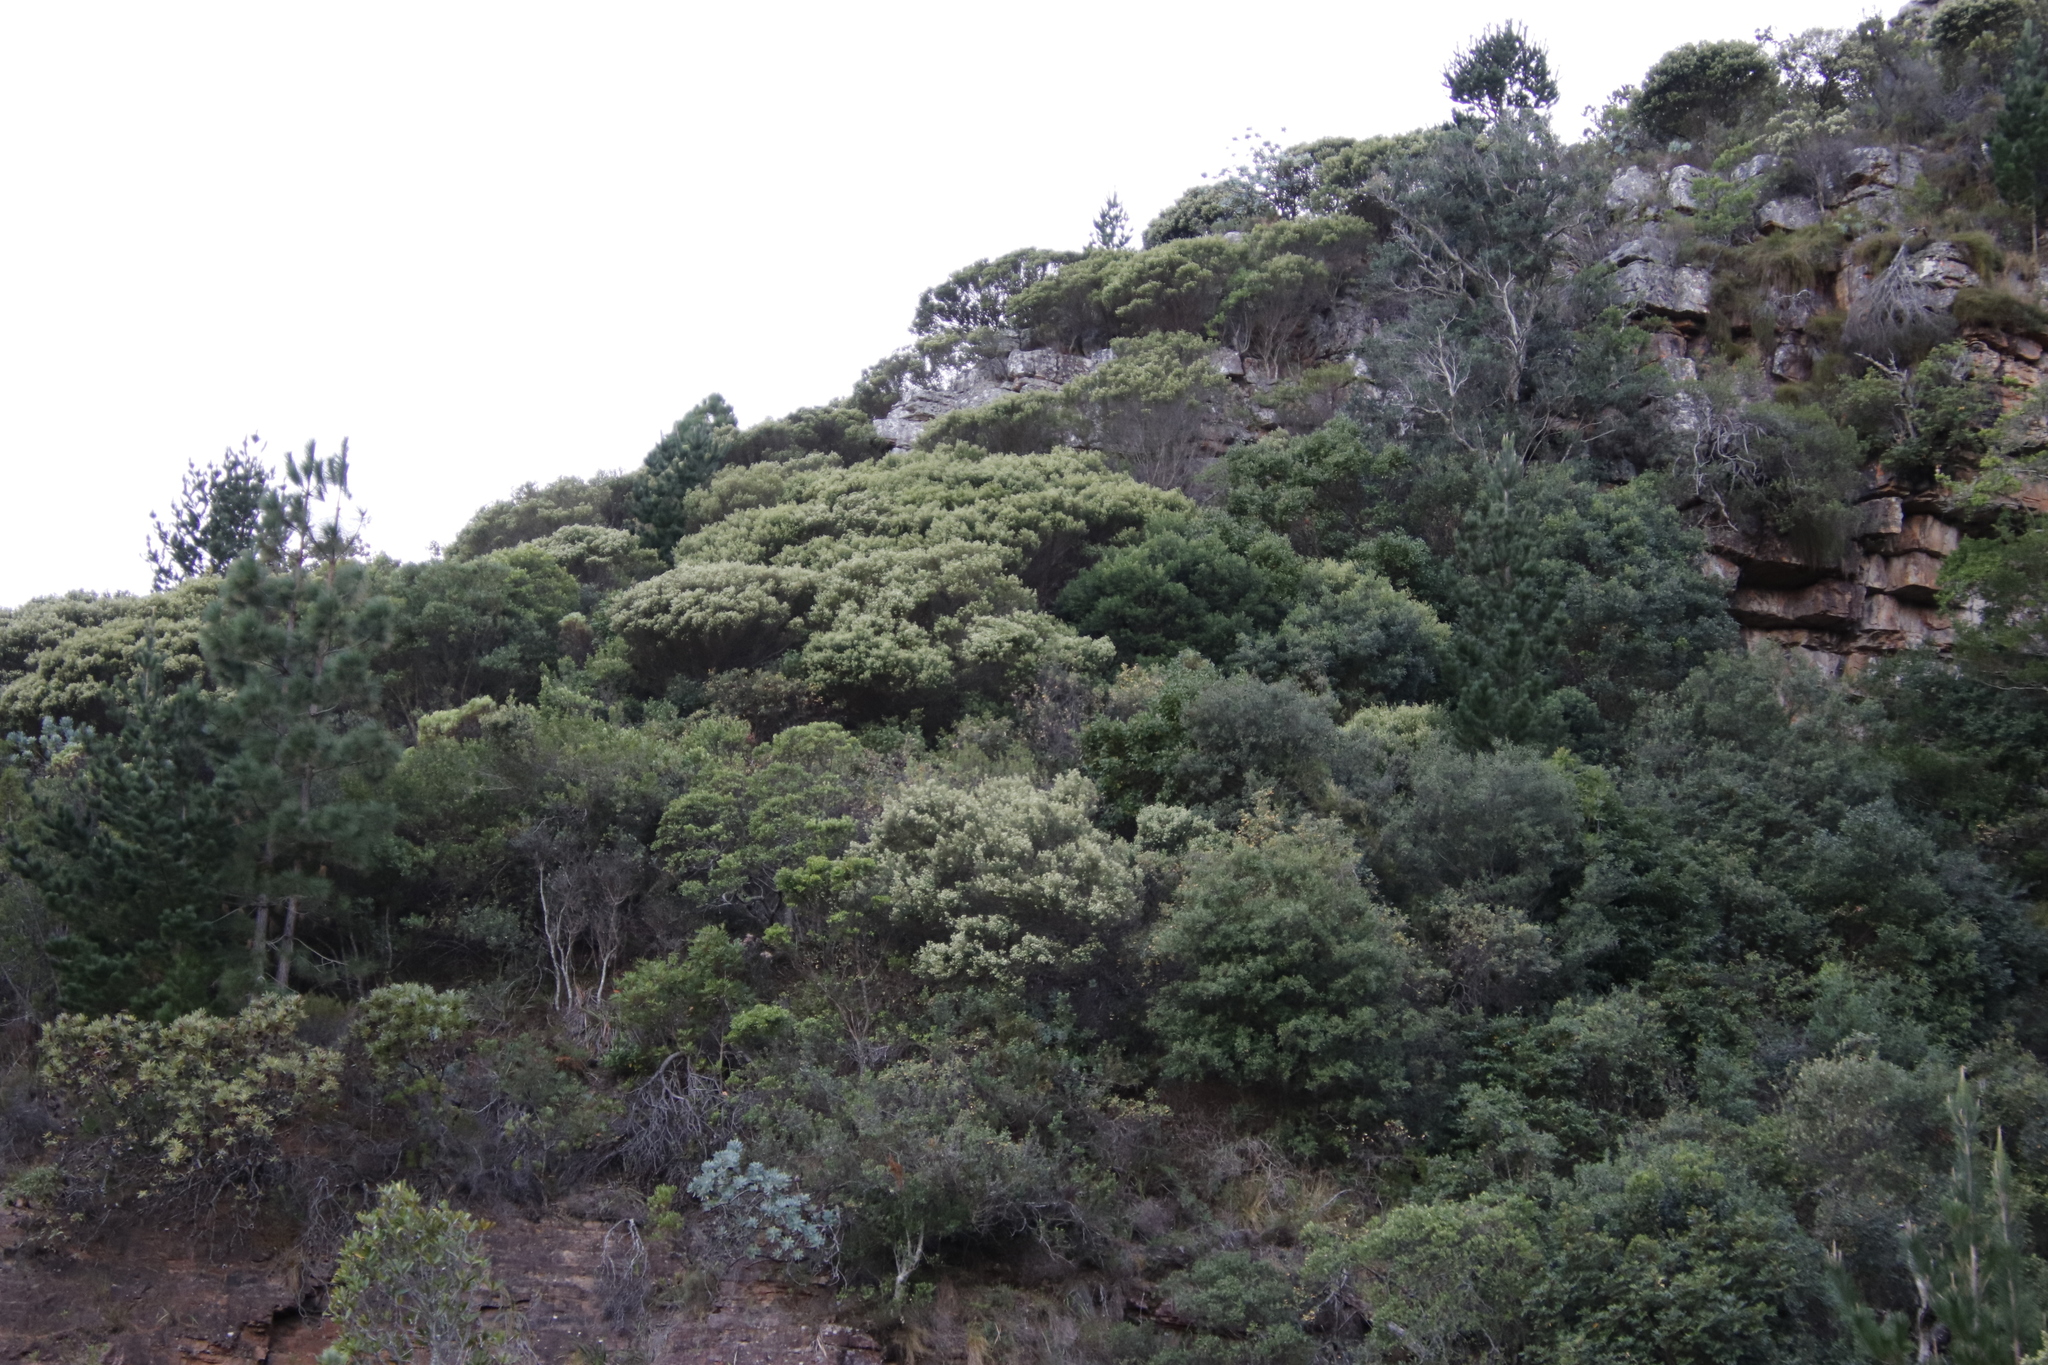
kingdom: Plantae
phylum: Tracheophyta
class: Magnoliopsida
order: Rosales
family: Rhamnaceae
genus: Phylica
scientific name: Phylica buxifolia
